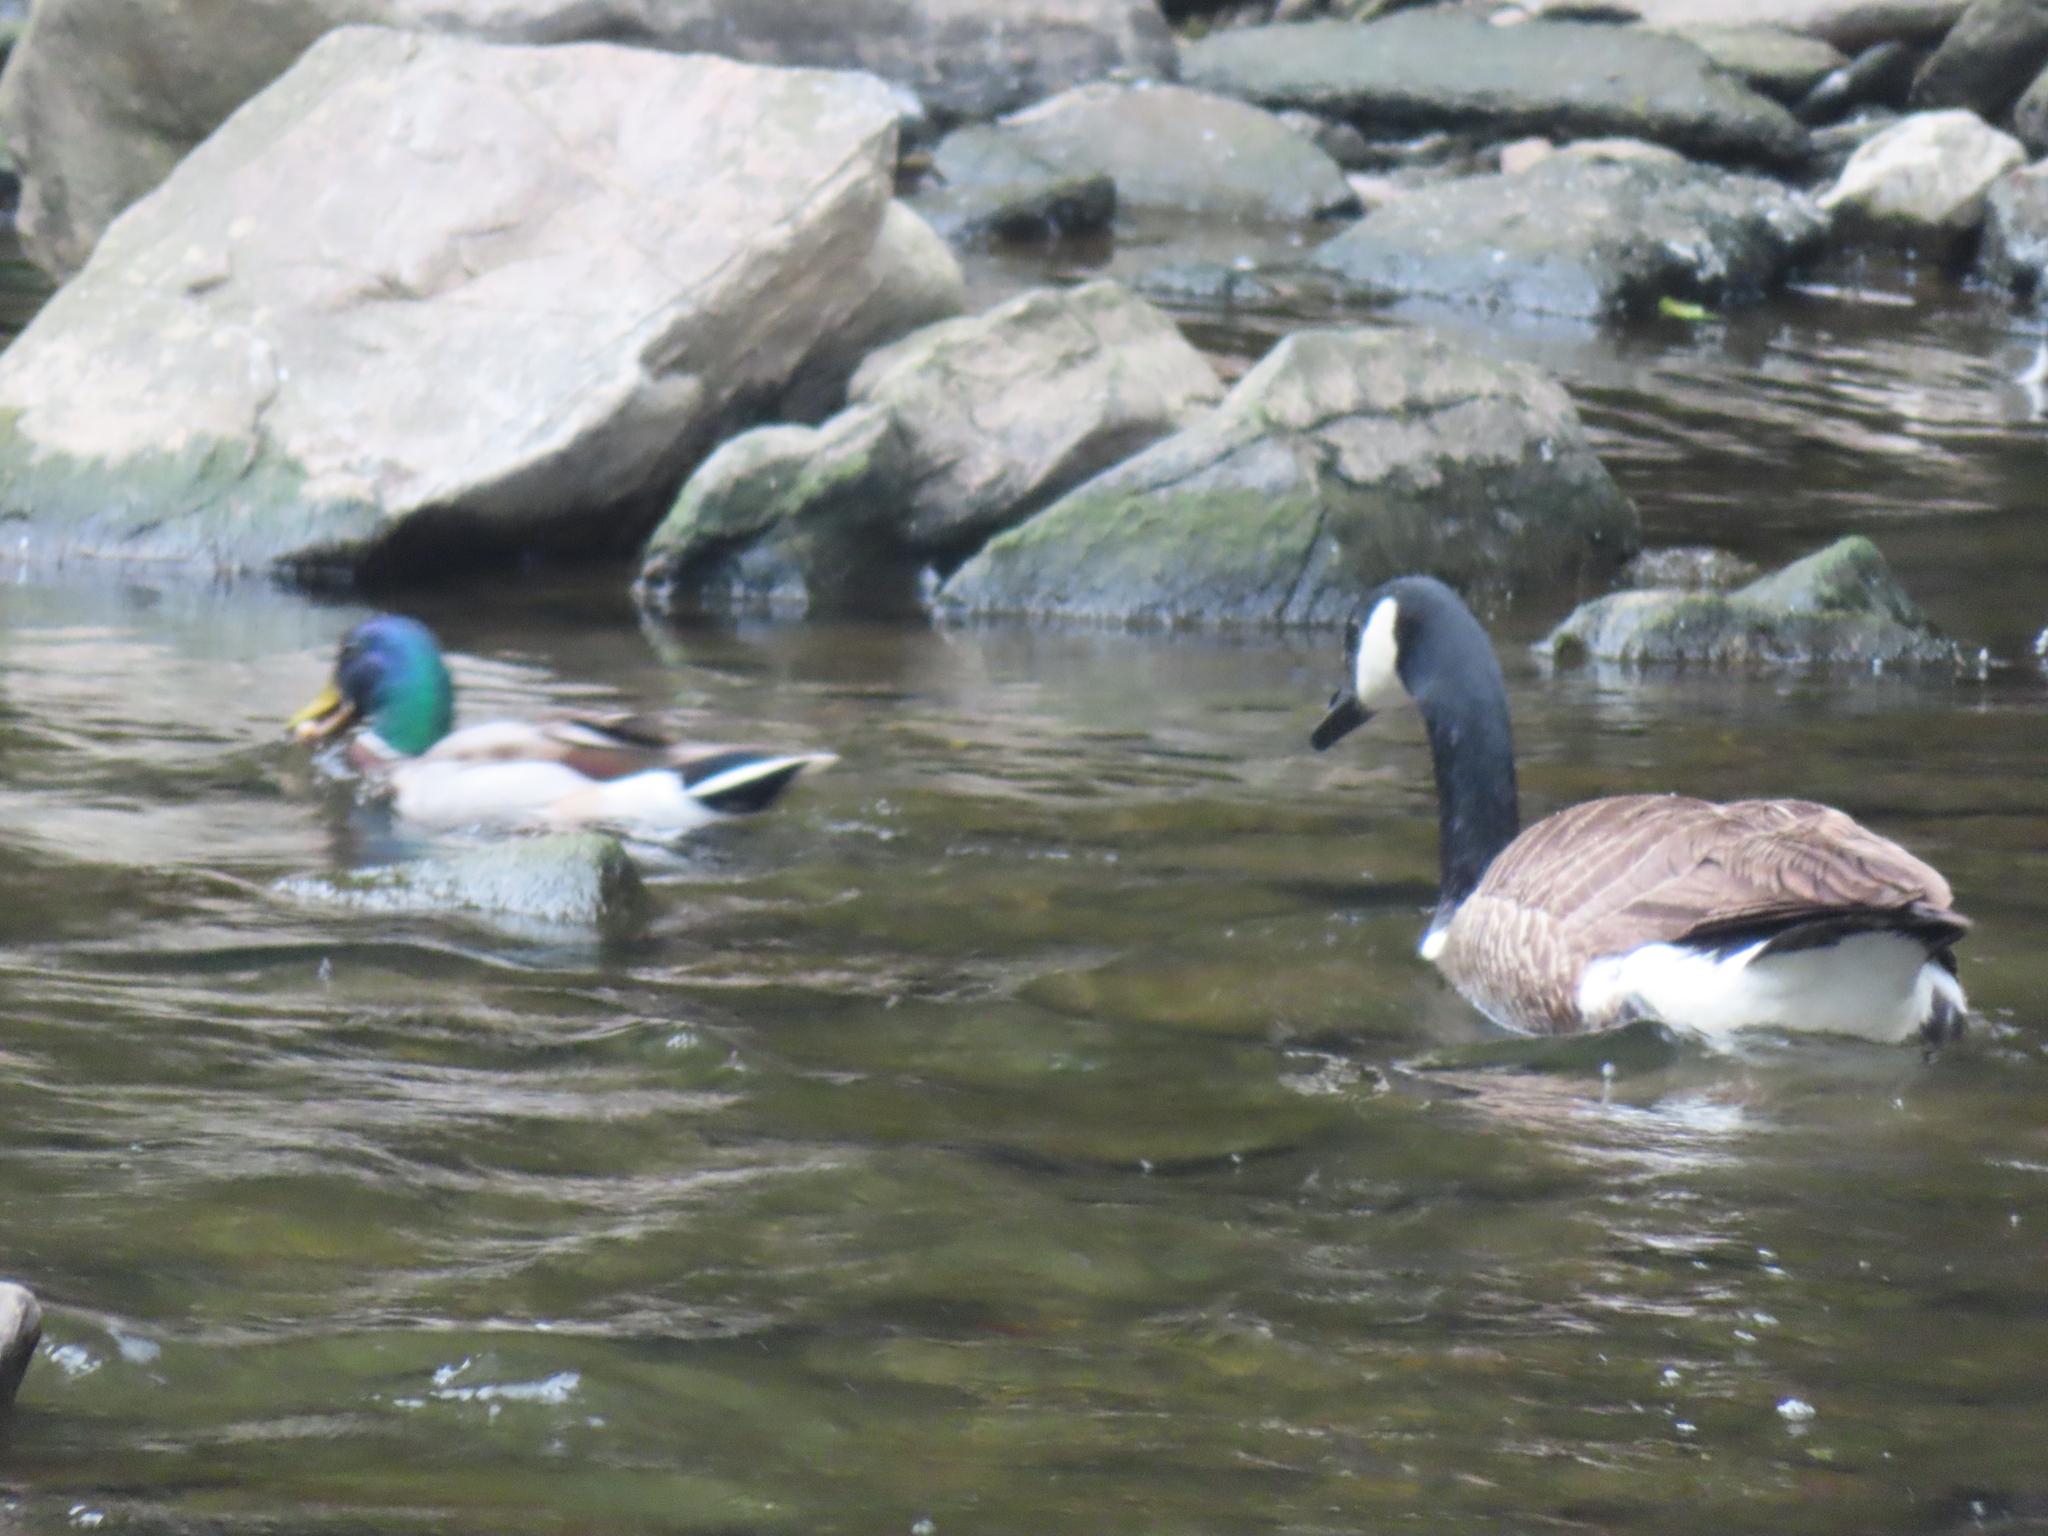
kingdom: Animalia
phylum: Chordata
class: Aves
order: Anseriformes
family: Anatidae
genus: Anas
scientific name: Anas platyrhynchos
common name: Mallard
